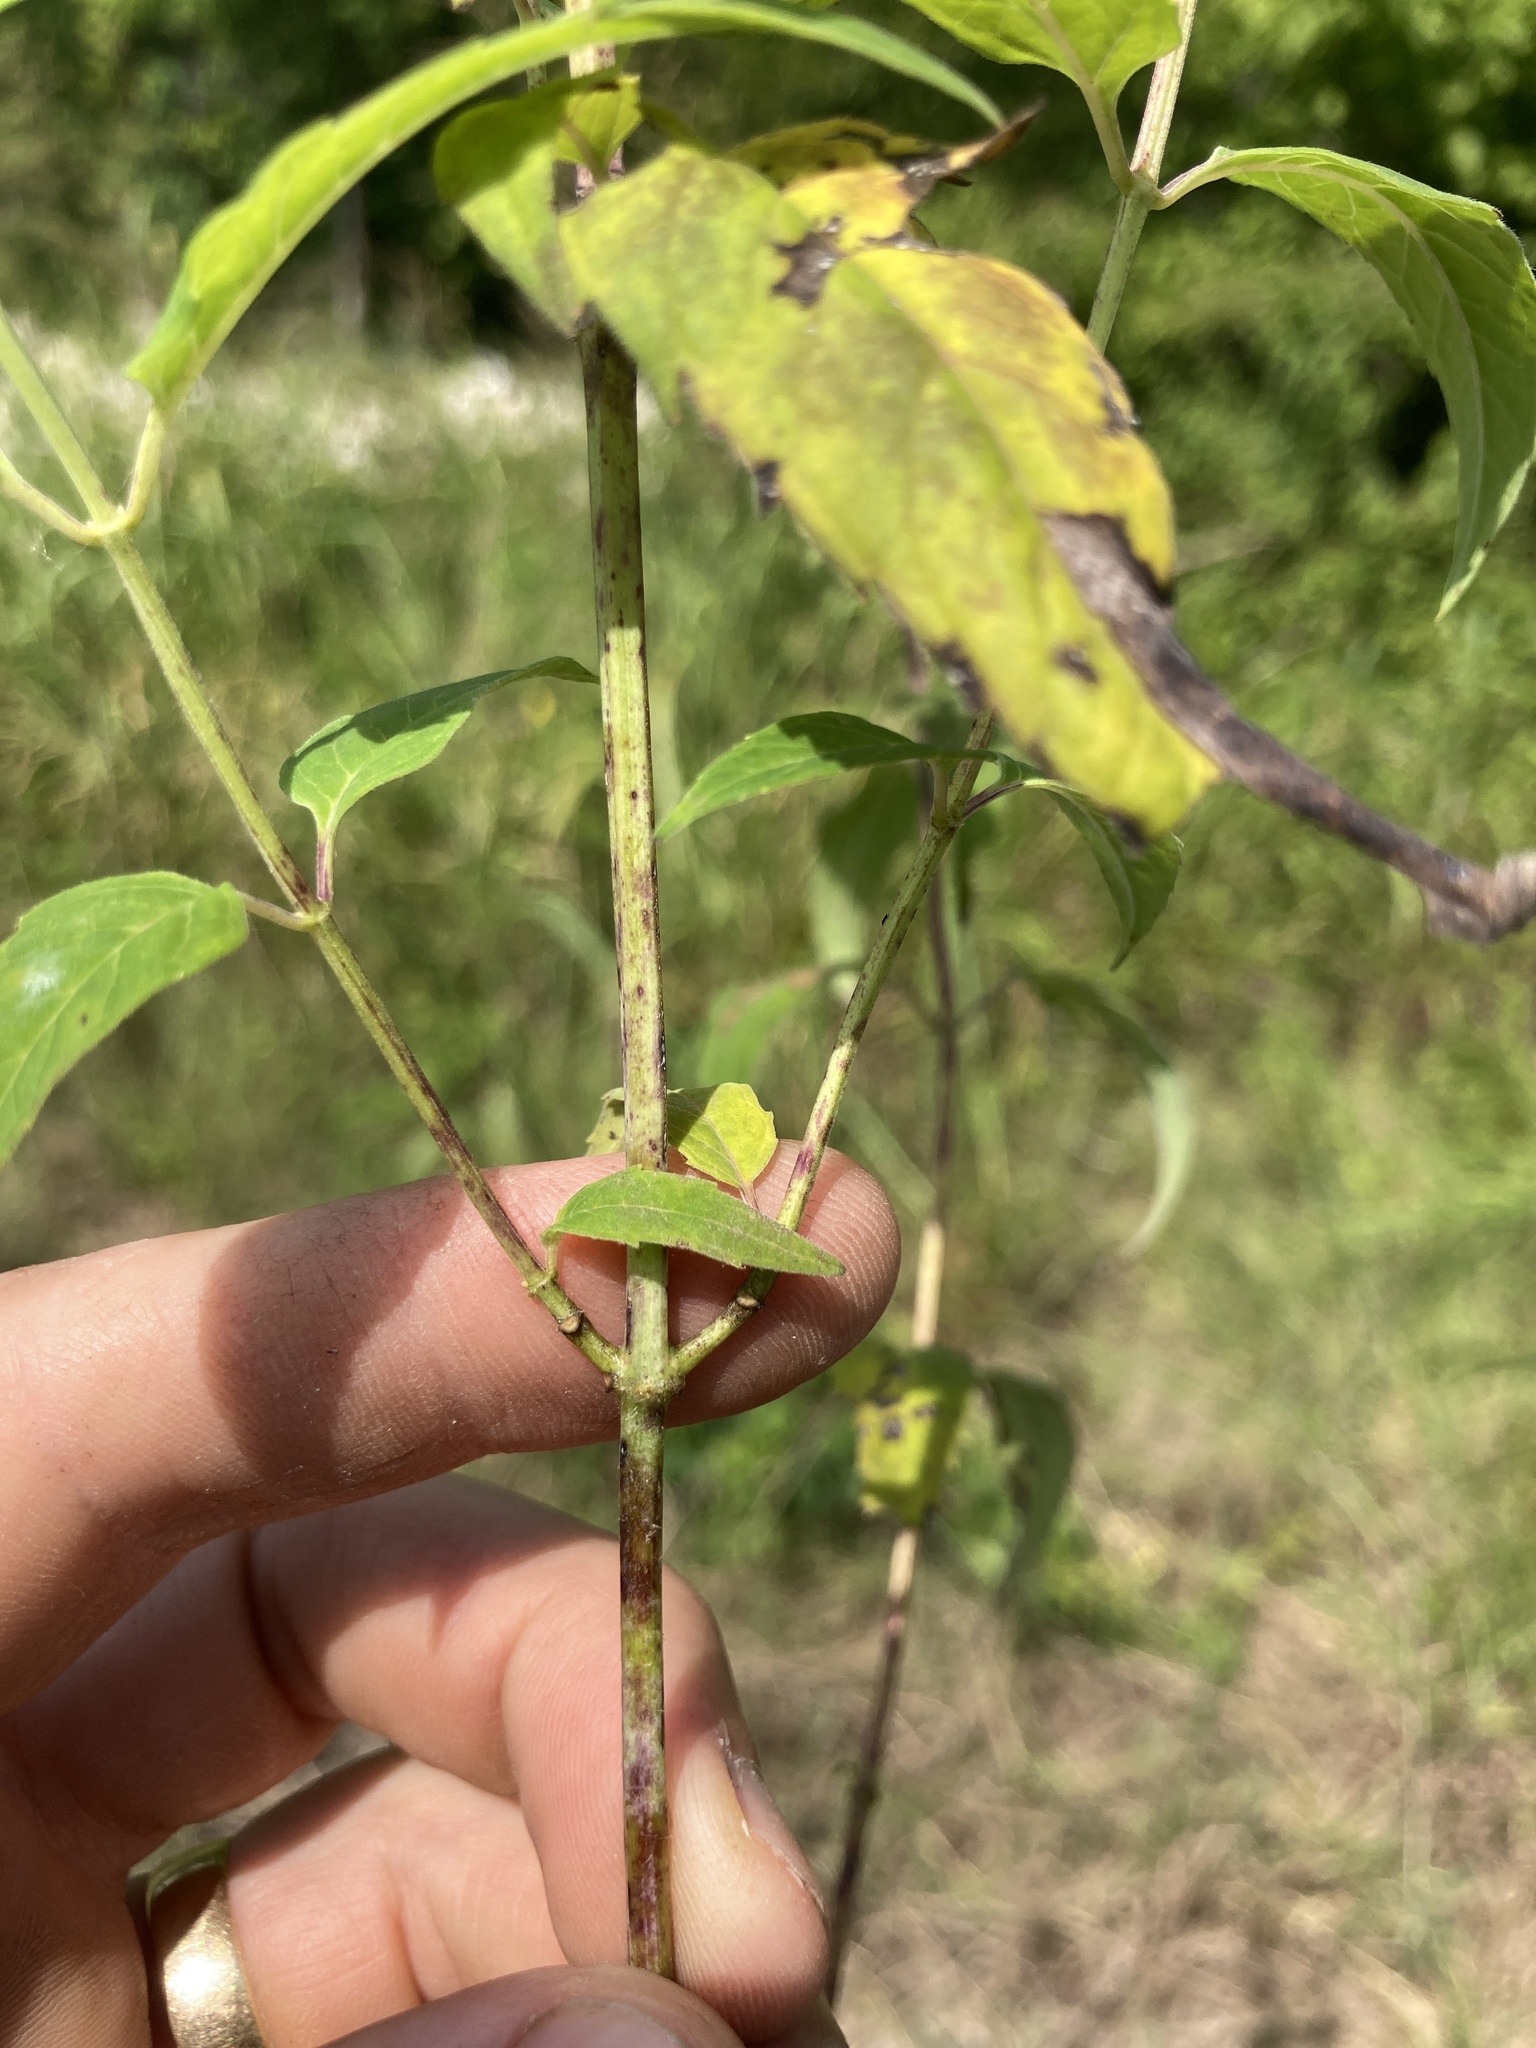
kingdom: Plantae
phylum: Tracheophyta
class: Magnoliopsida
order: Lamiales
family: Lamiaceae
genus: Monarda
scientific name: Monarda fistulosa
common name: Purple beebalm
